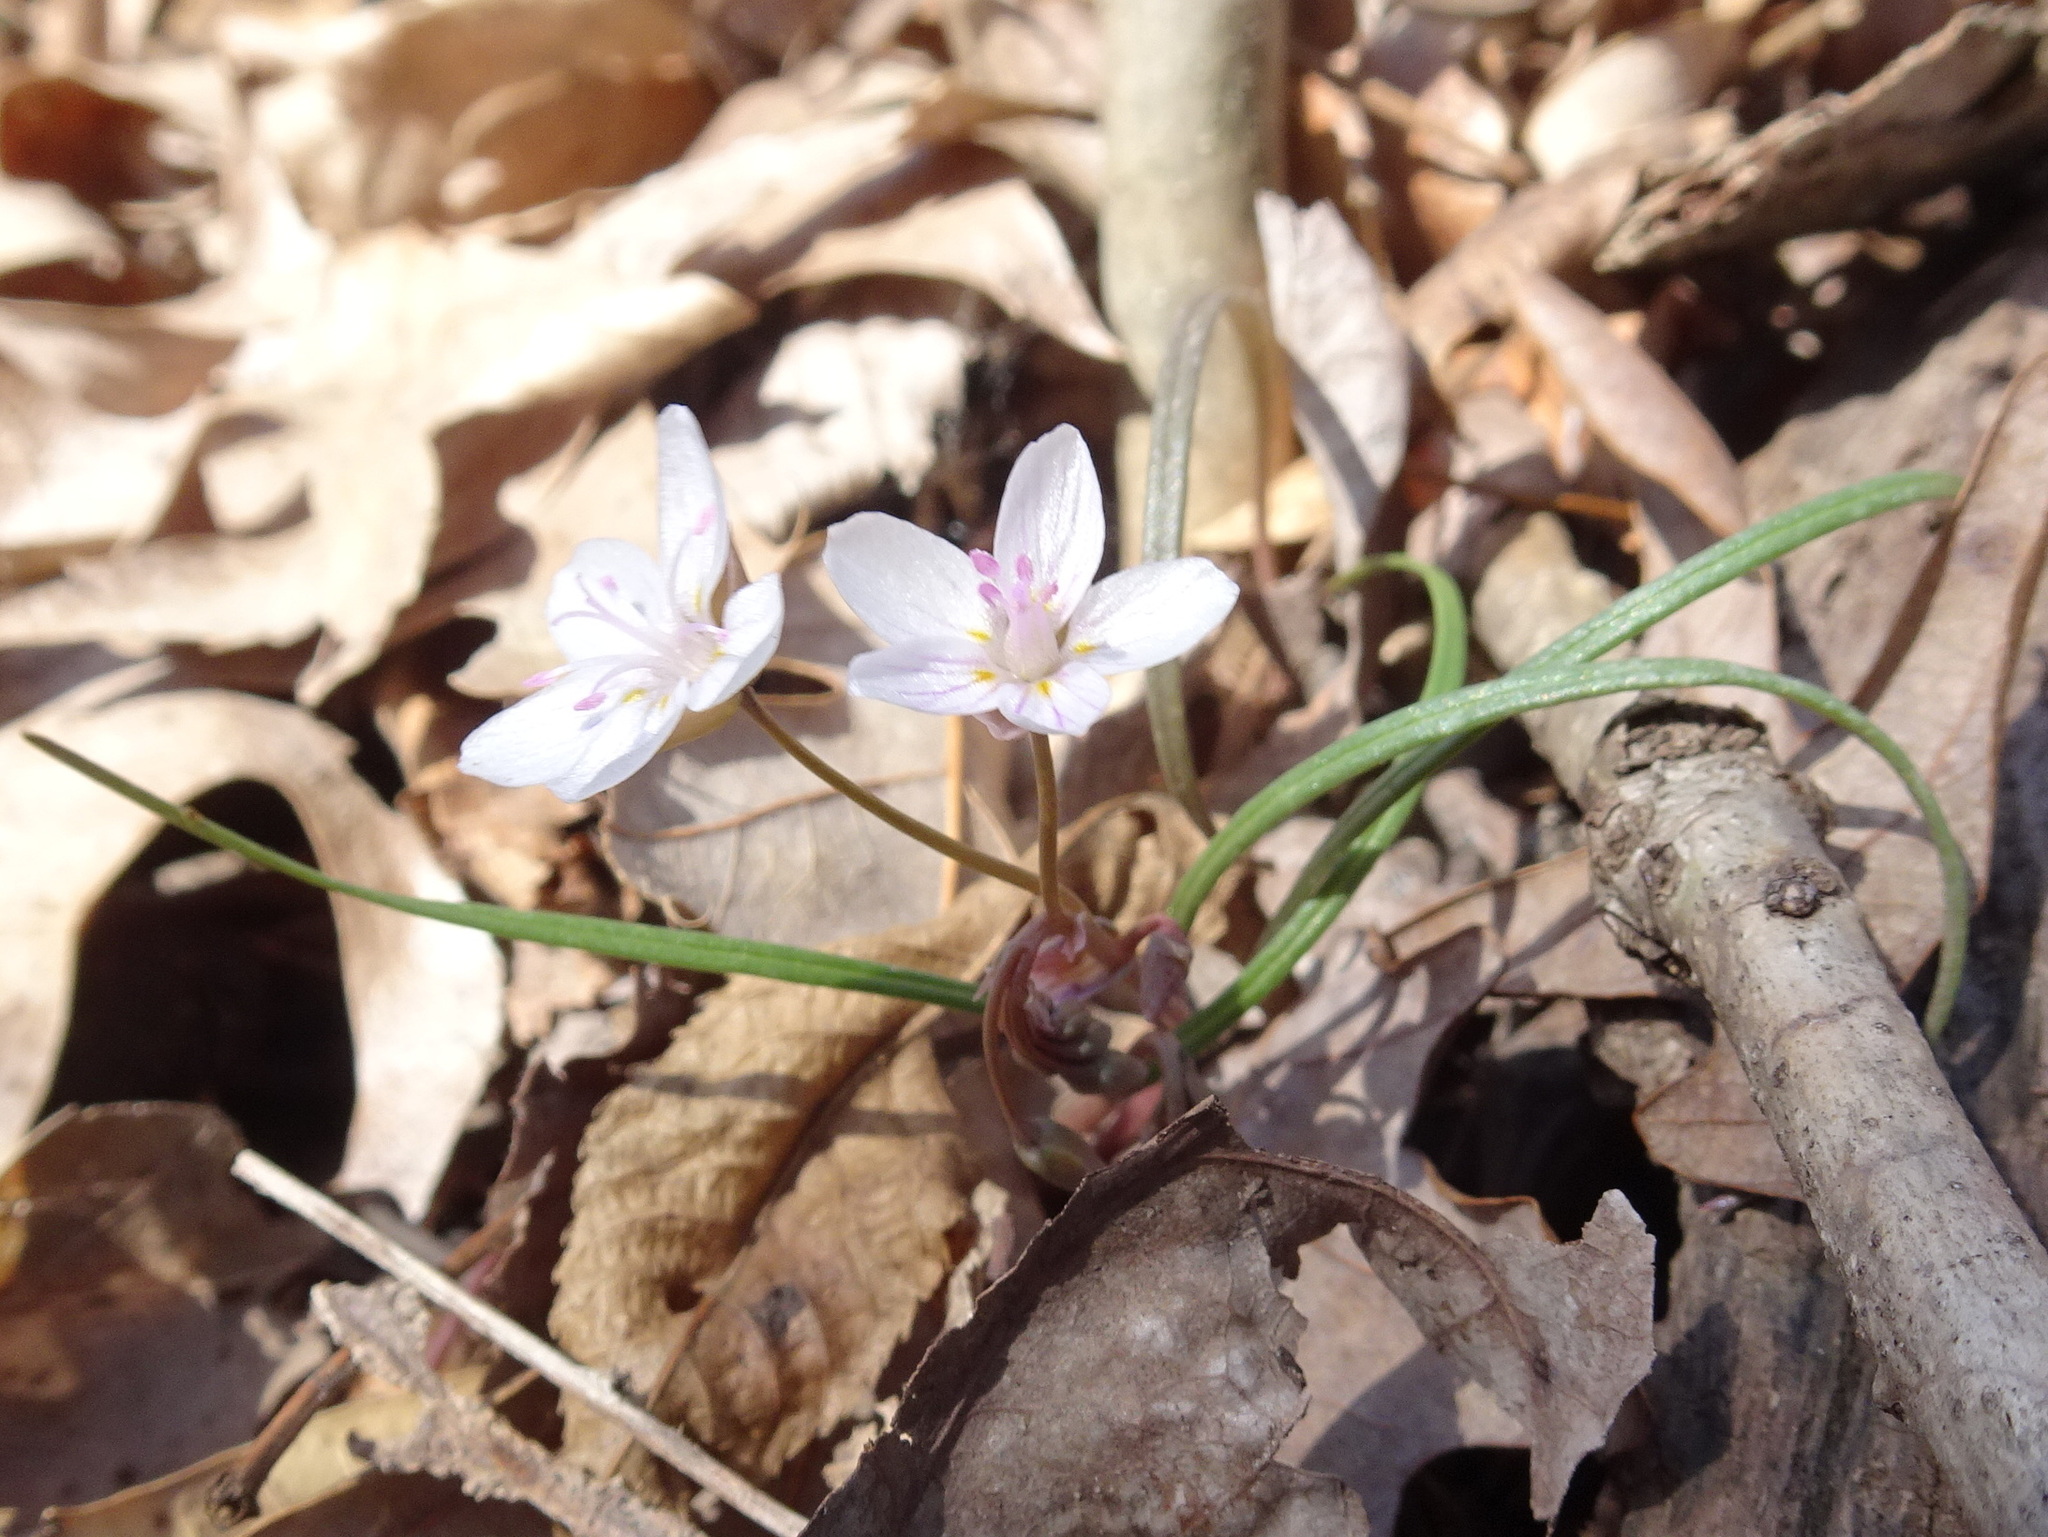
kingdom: Plantae
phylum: Tracheophyta
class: Magnoliopsida
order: Caryophyllales
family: Montiaceae
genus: Claytonia
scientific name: Claytonia virginica
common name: Virginia springbeauty
